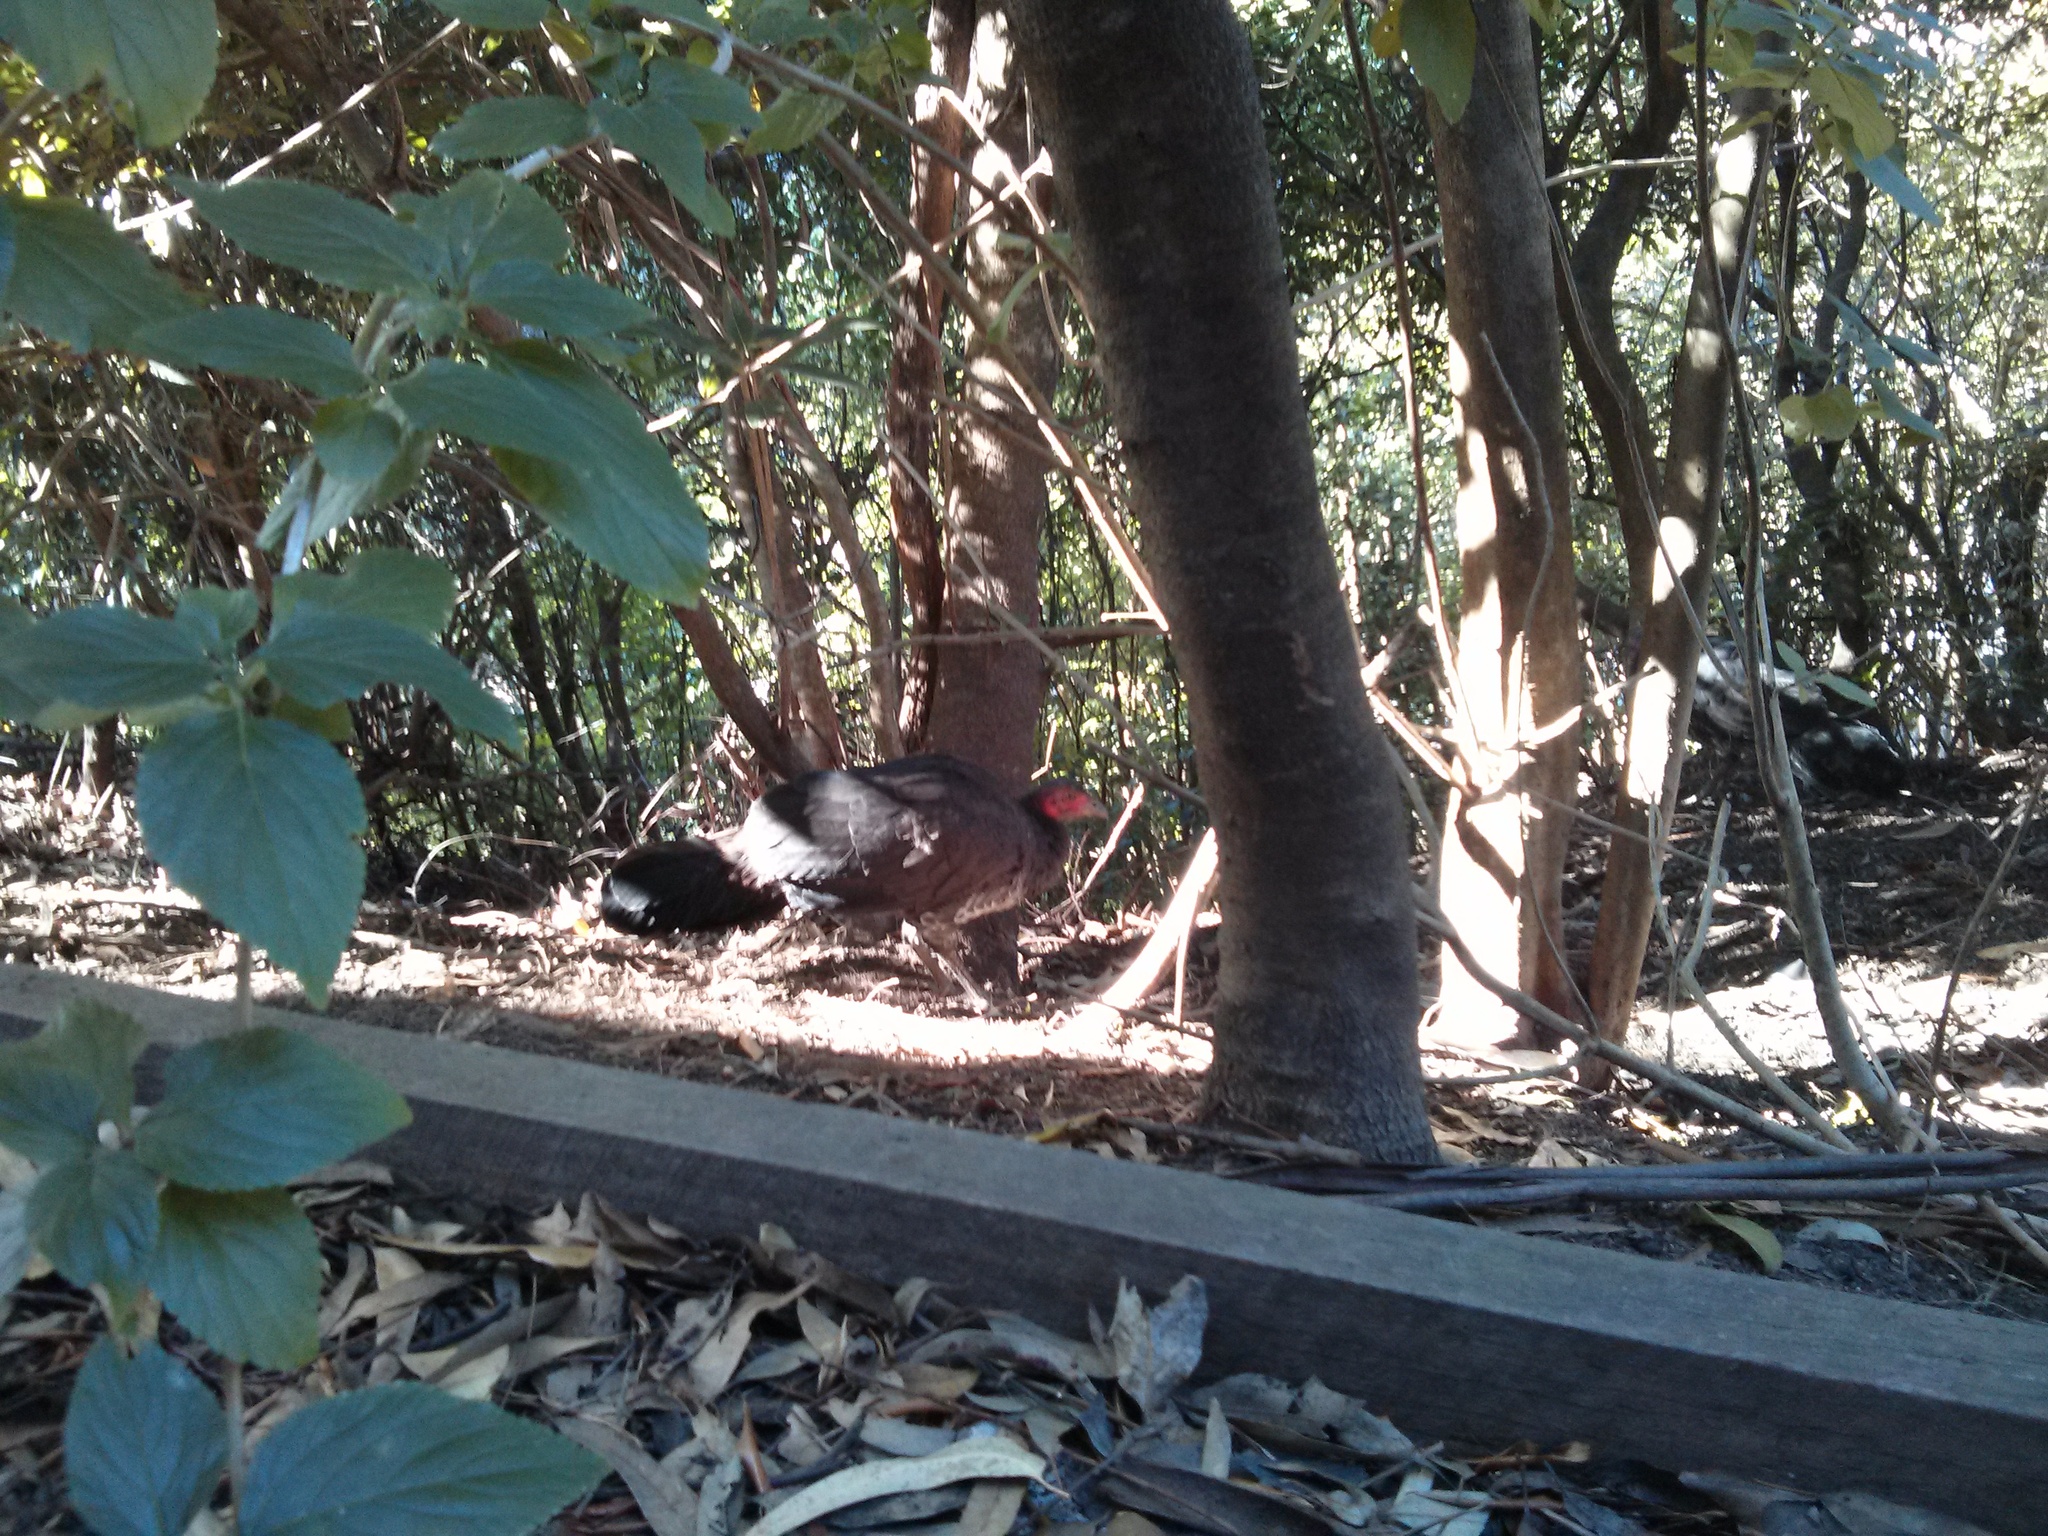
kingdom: Animalia
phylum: Chordata
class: Aves
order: Galliformes
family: Megapodiidae
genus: Alectura
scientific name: Alectura lathami
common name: Australian brushturkey
